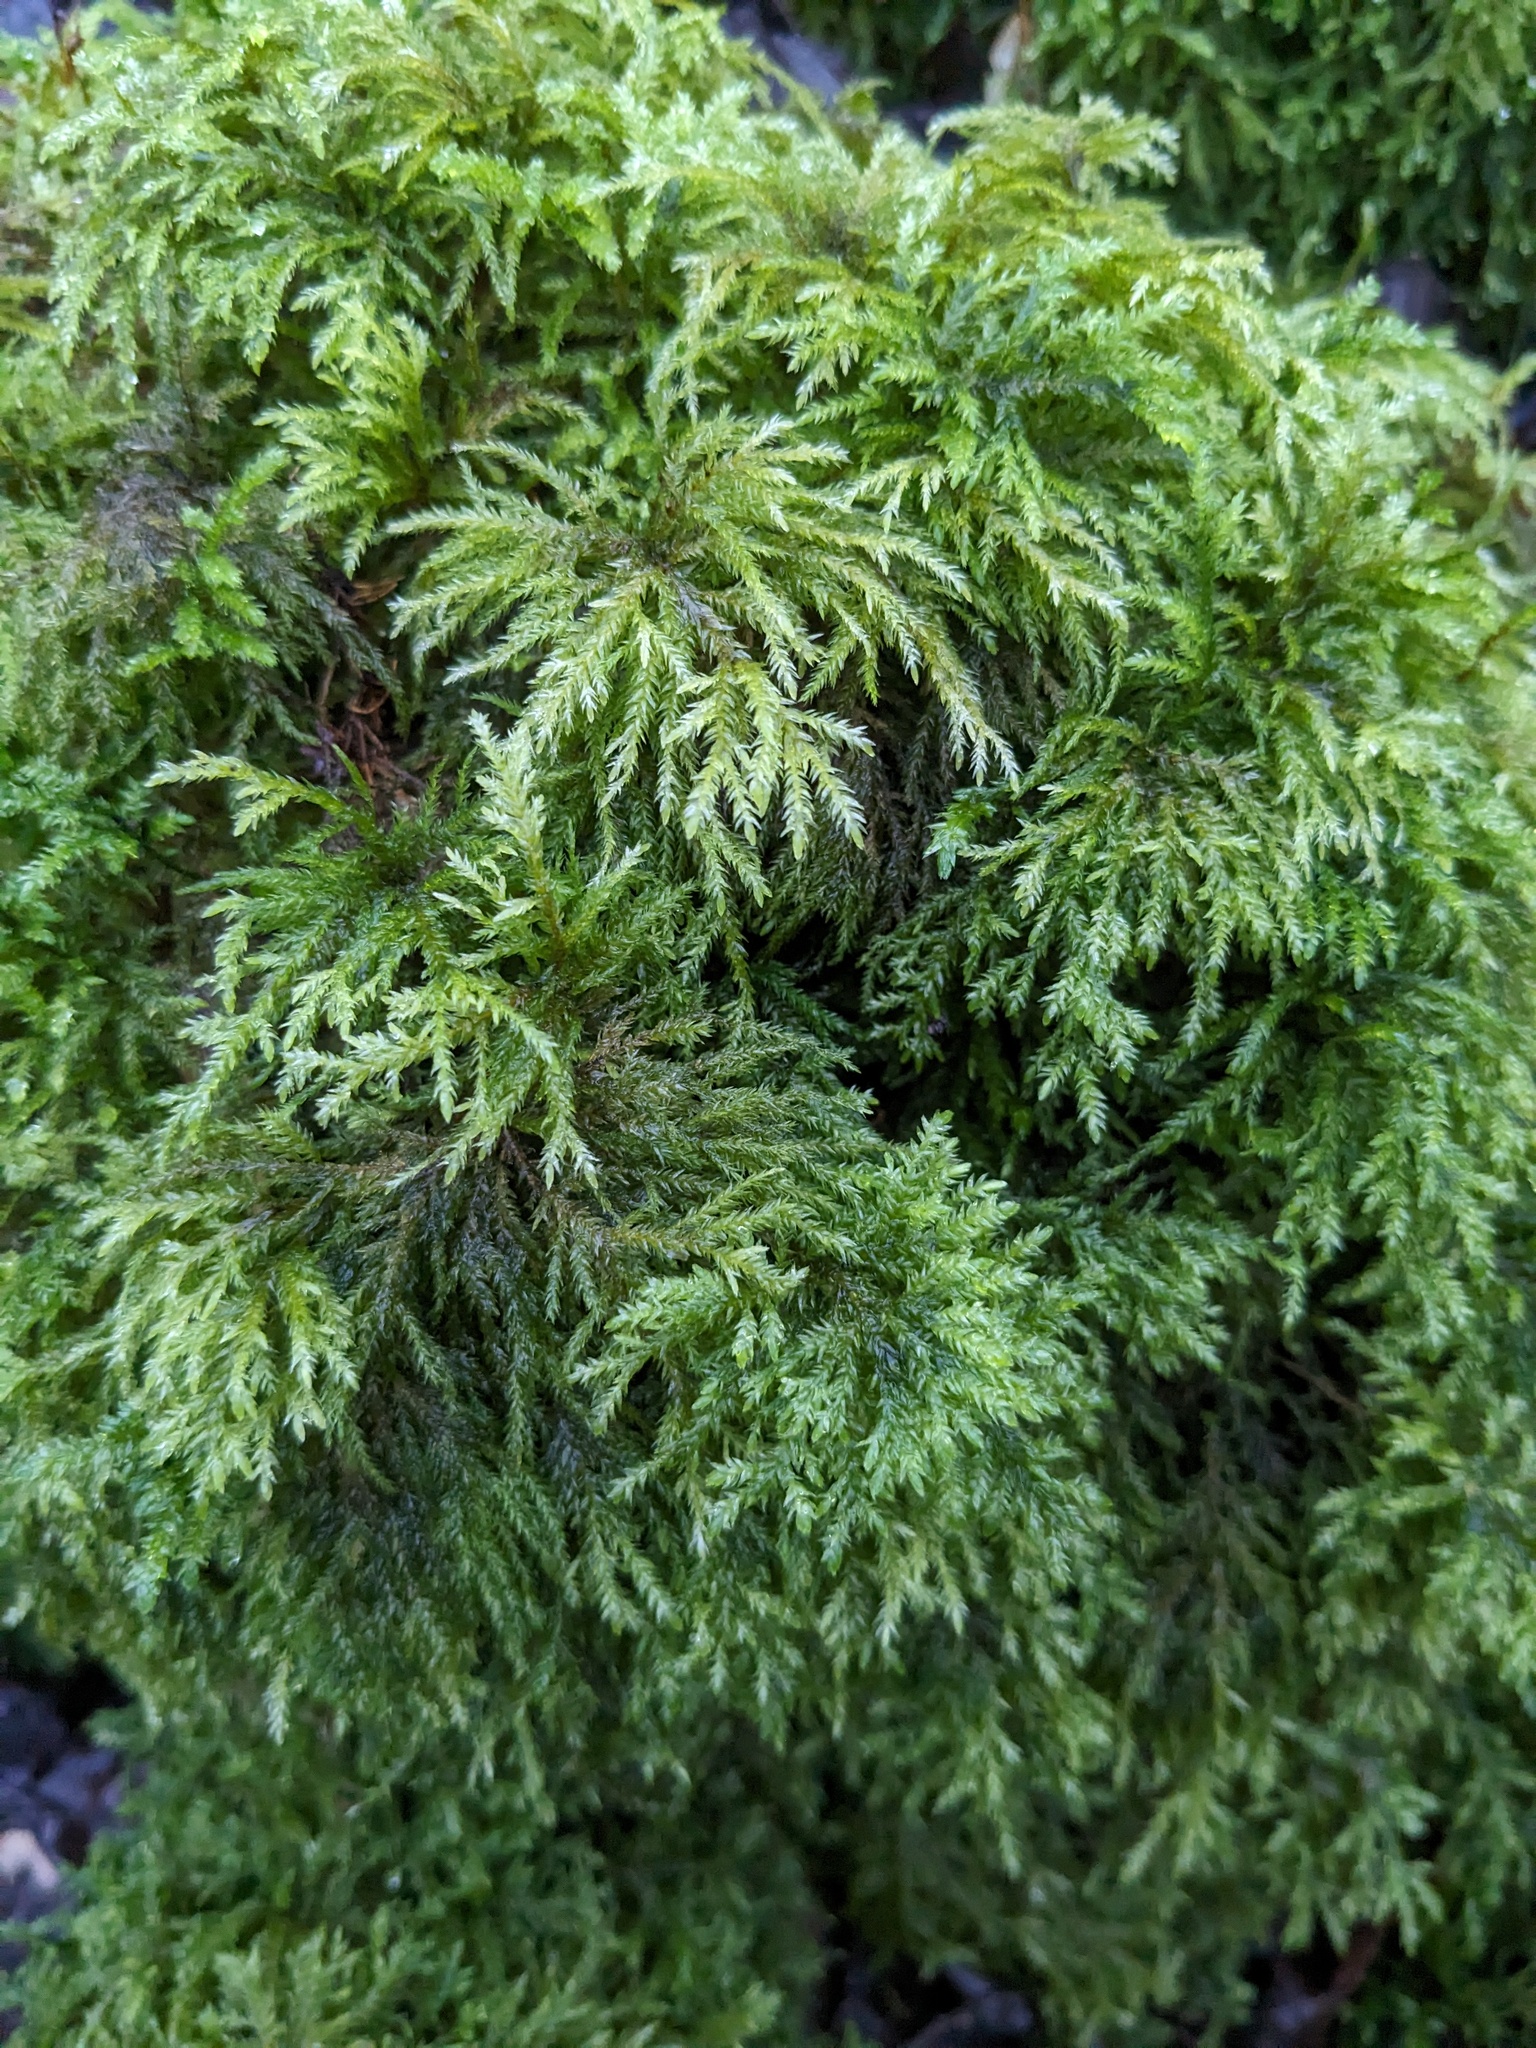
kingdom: Plantae
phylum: Bryophyta
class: Bryopsida
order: Hypnales
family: Neckeraceae
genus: Thamnobryum
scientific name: Thamnobryum alopecurum
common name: Fox-tail feather-moss
